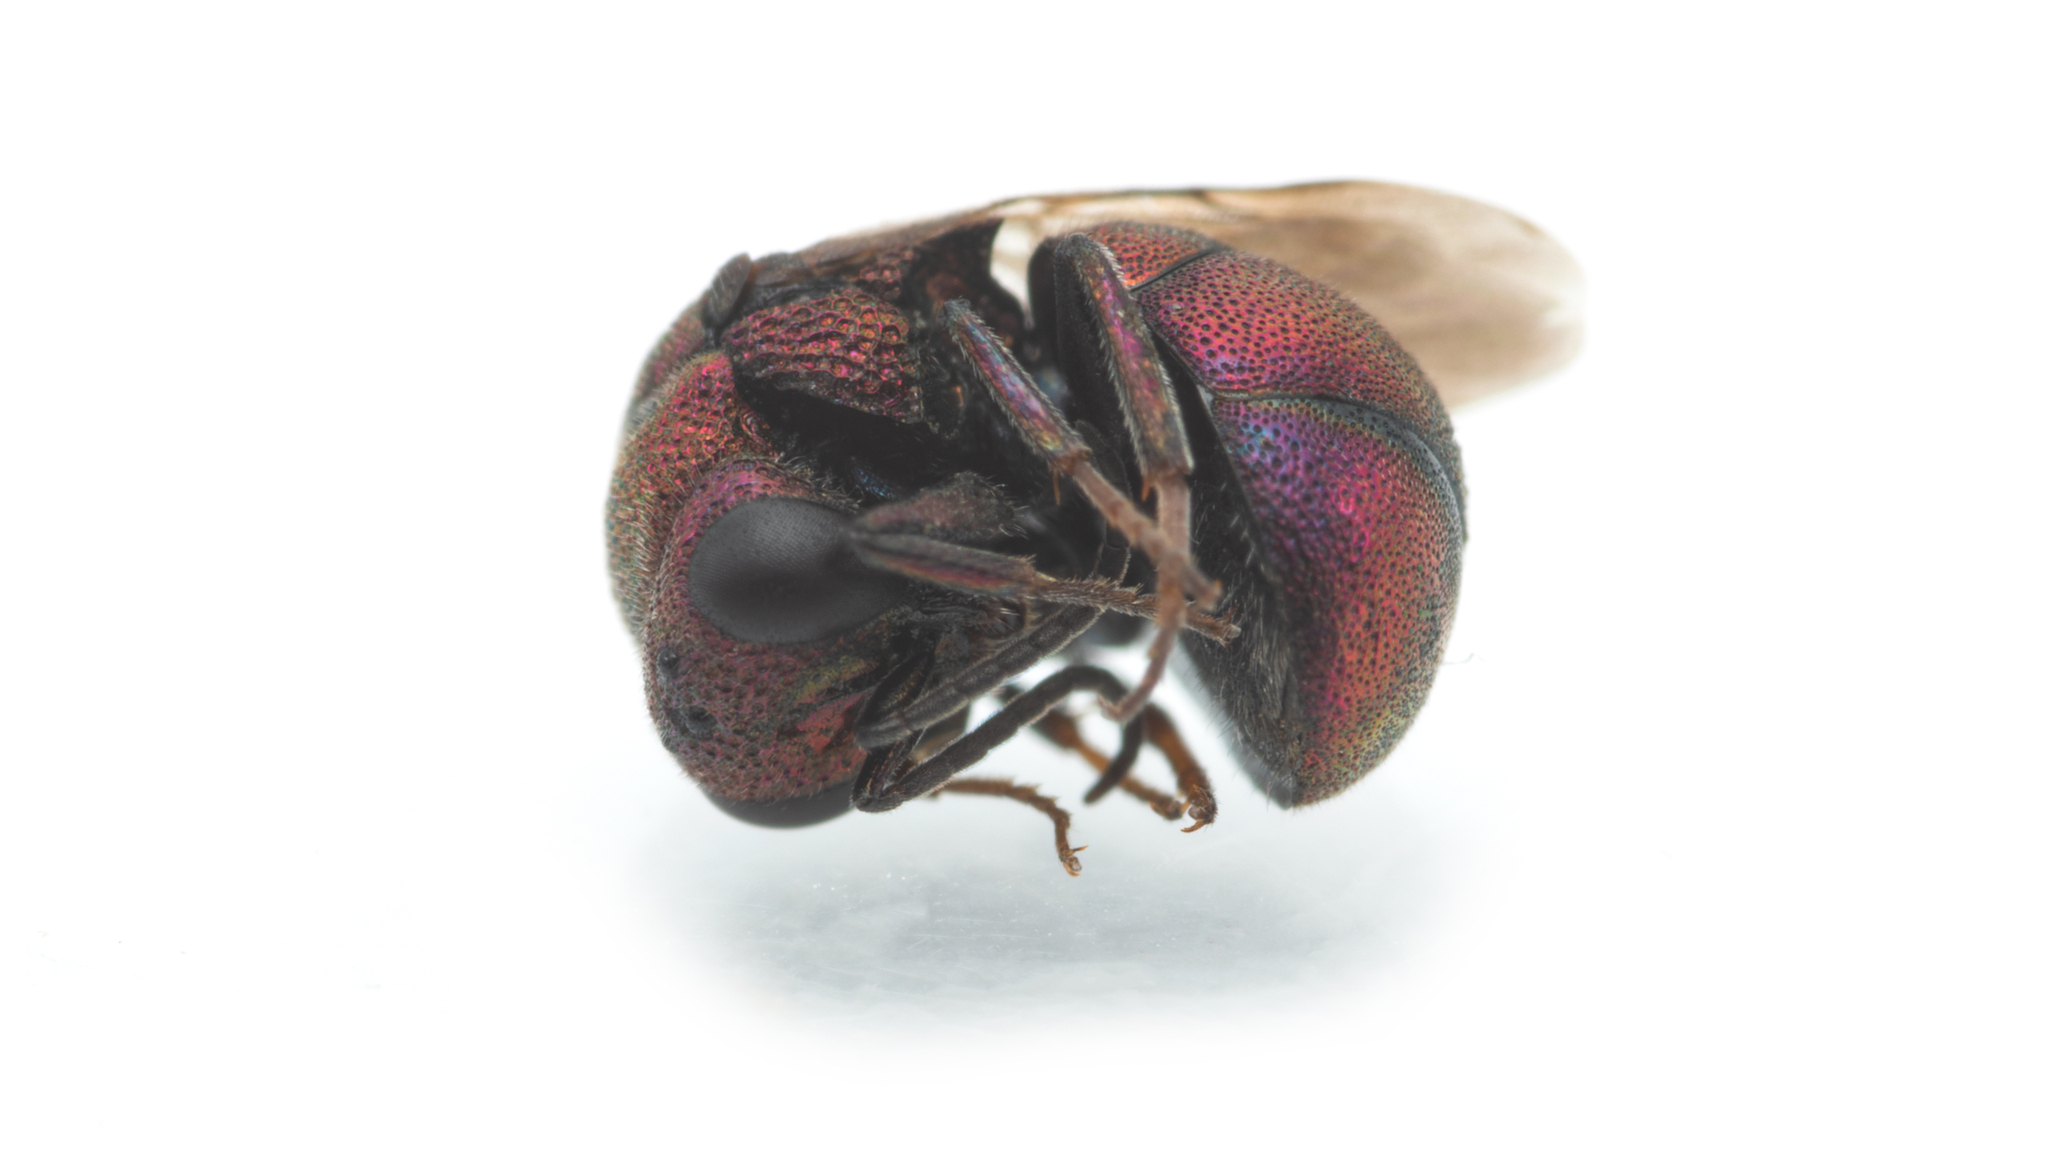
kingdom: Animalia
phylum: Arthropoda
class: Insecta
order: Hymenoptera
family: Chrysididae
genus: Holopyga
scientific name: Holopyga
